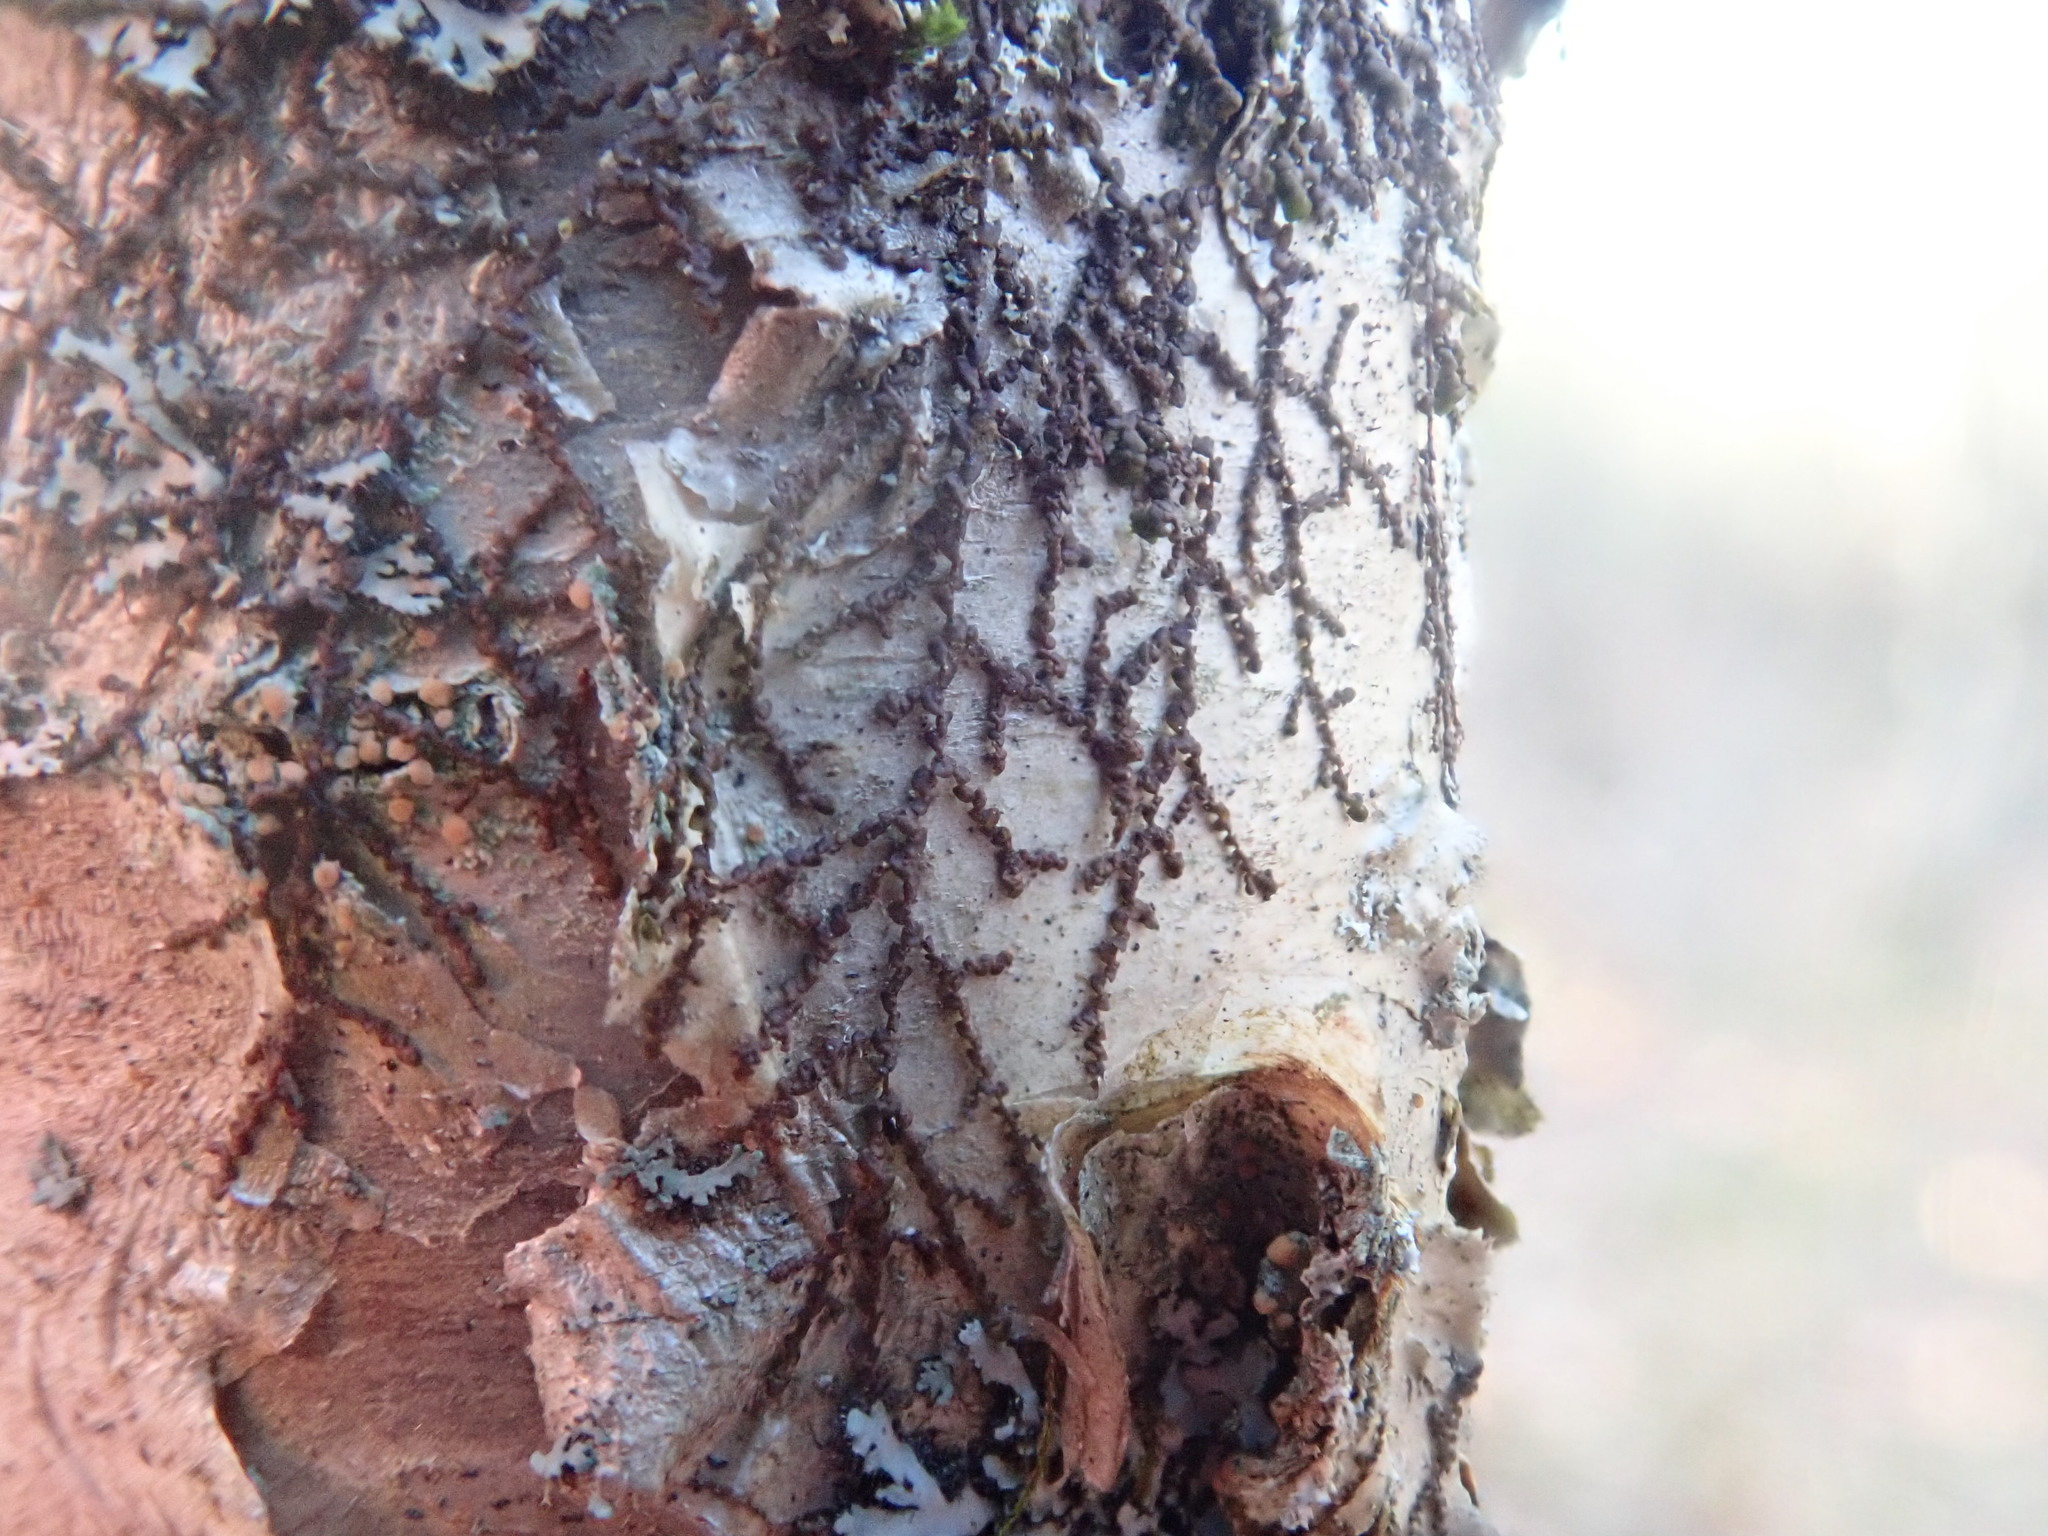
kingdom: Plantae
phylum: Marchantiophyta
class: Jungermanniopsida
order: Porellales
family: Frullaniaceae
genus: Frullania
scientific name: Frullania
